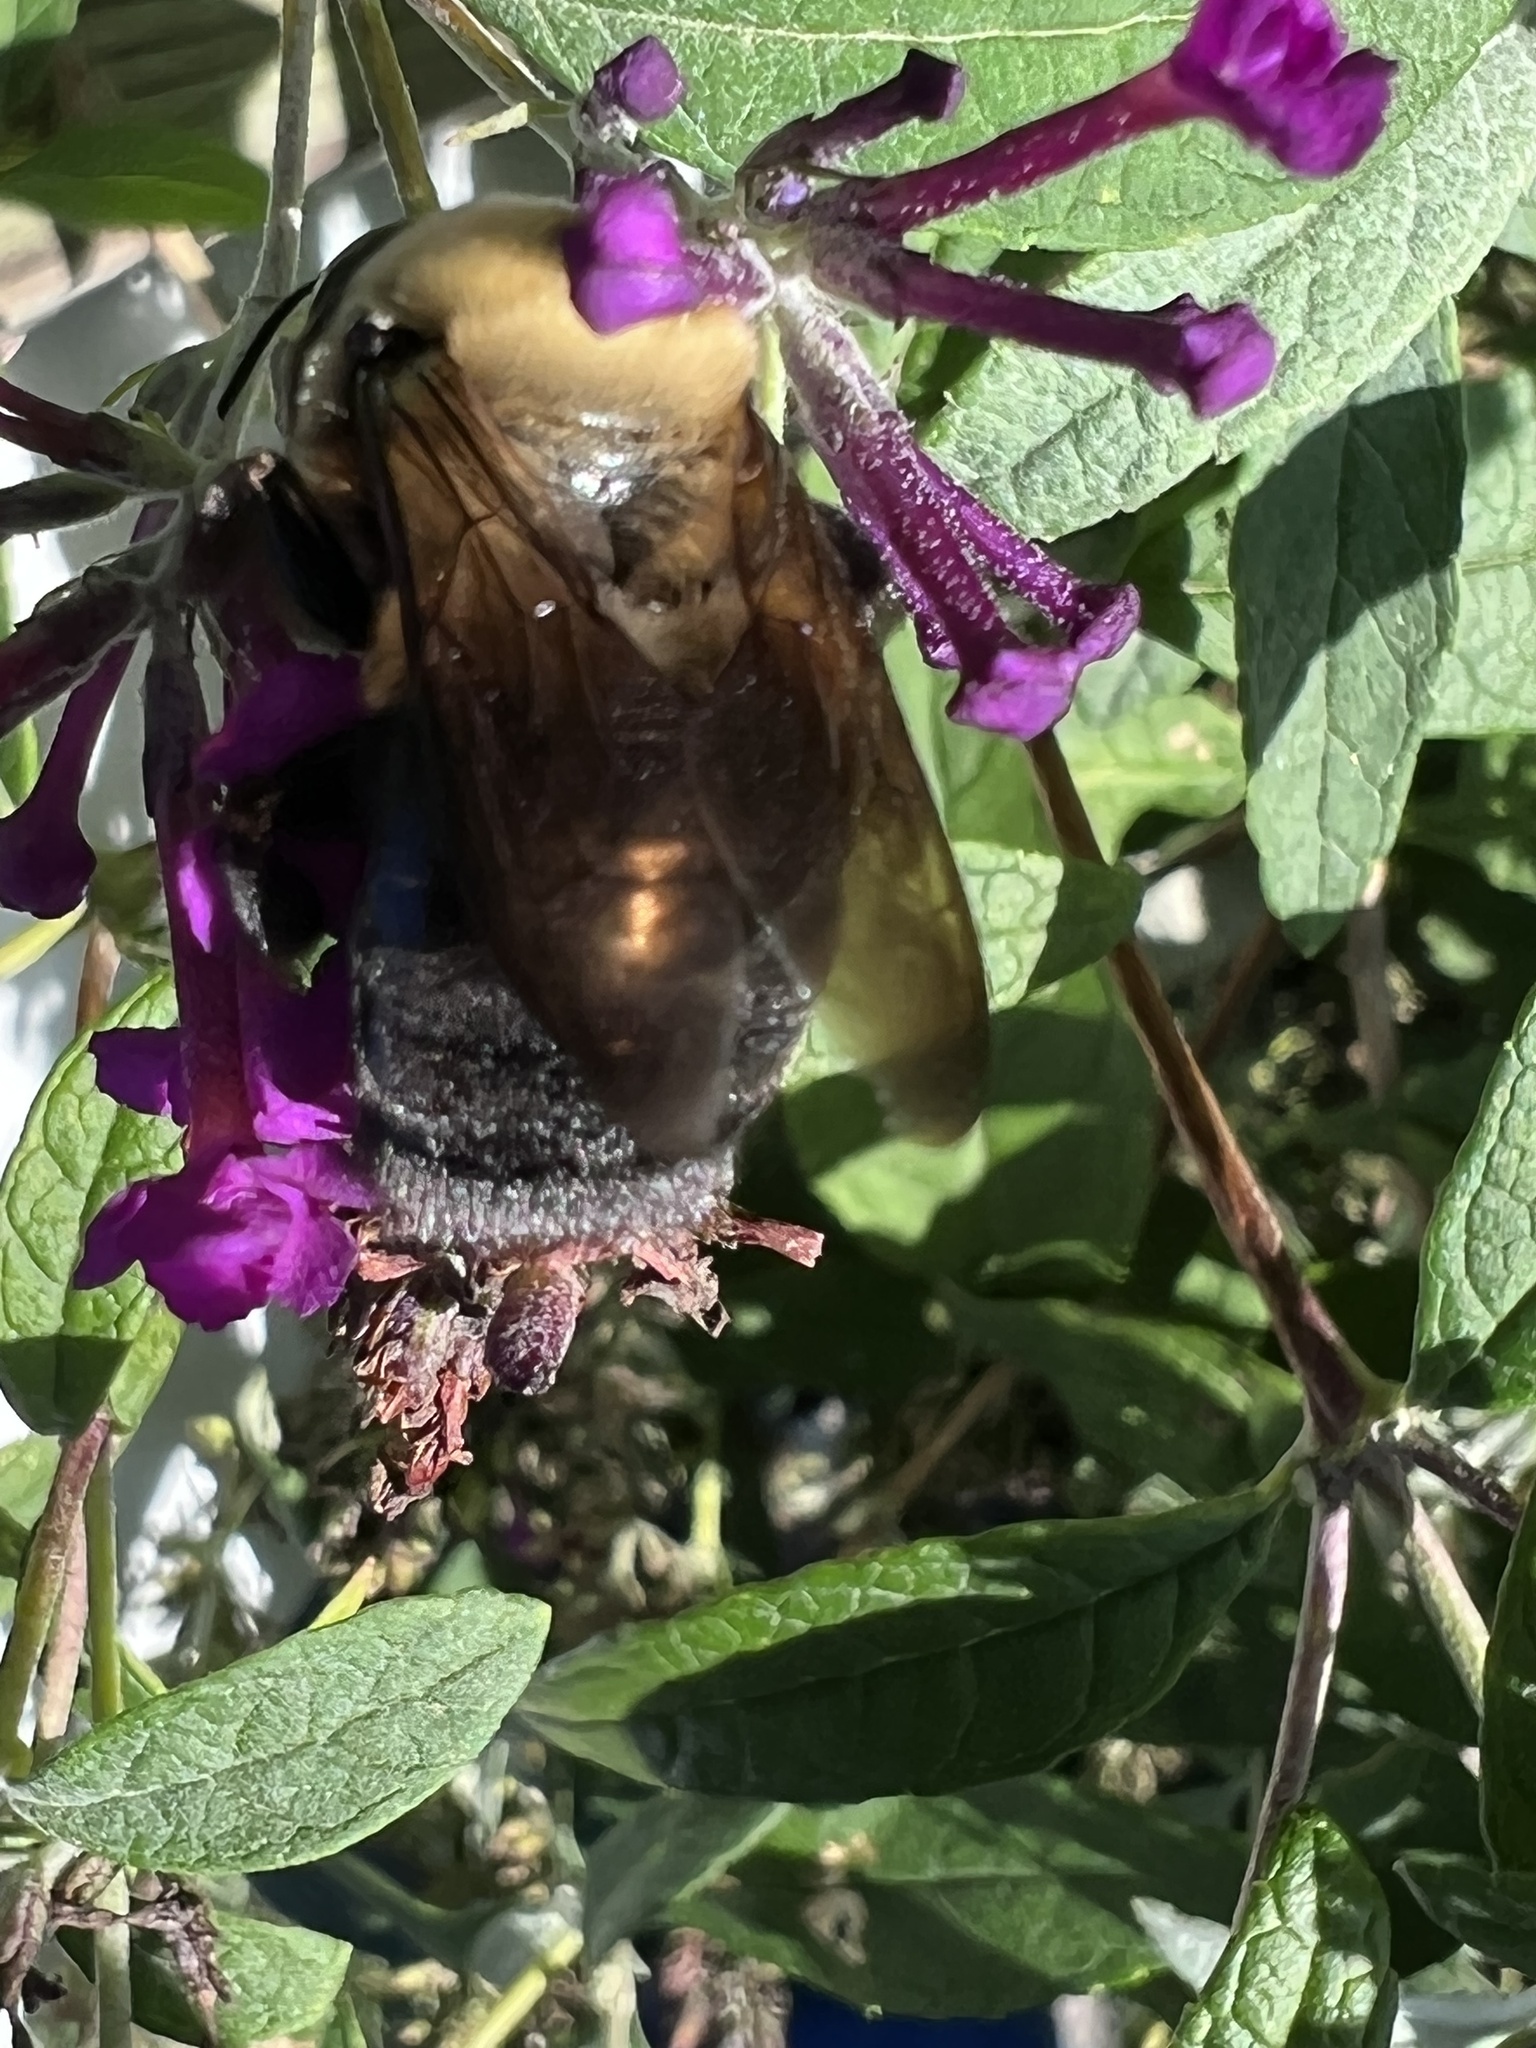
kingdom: Animalia
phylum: Arthropoda
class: Insecta
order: Hymenoptera
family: Apidae
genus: Xylocopa
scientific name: Xylocopa virginica
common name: Carpenter bee
